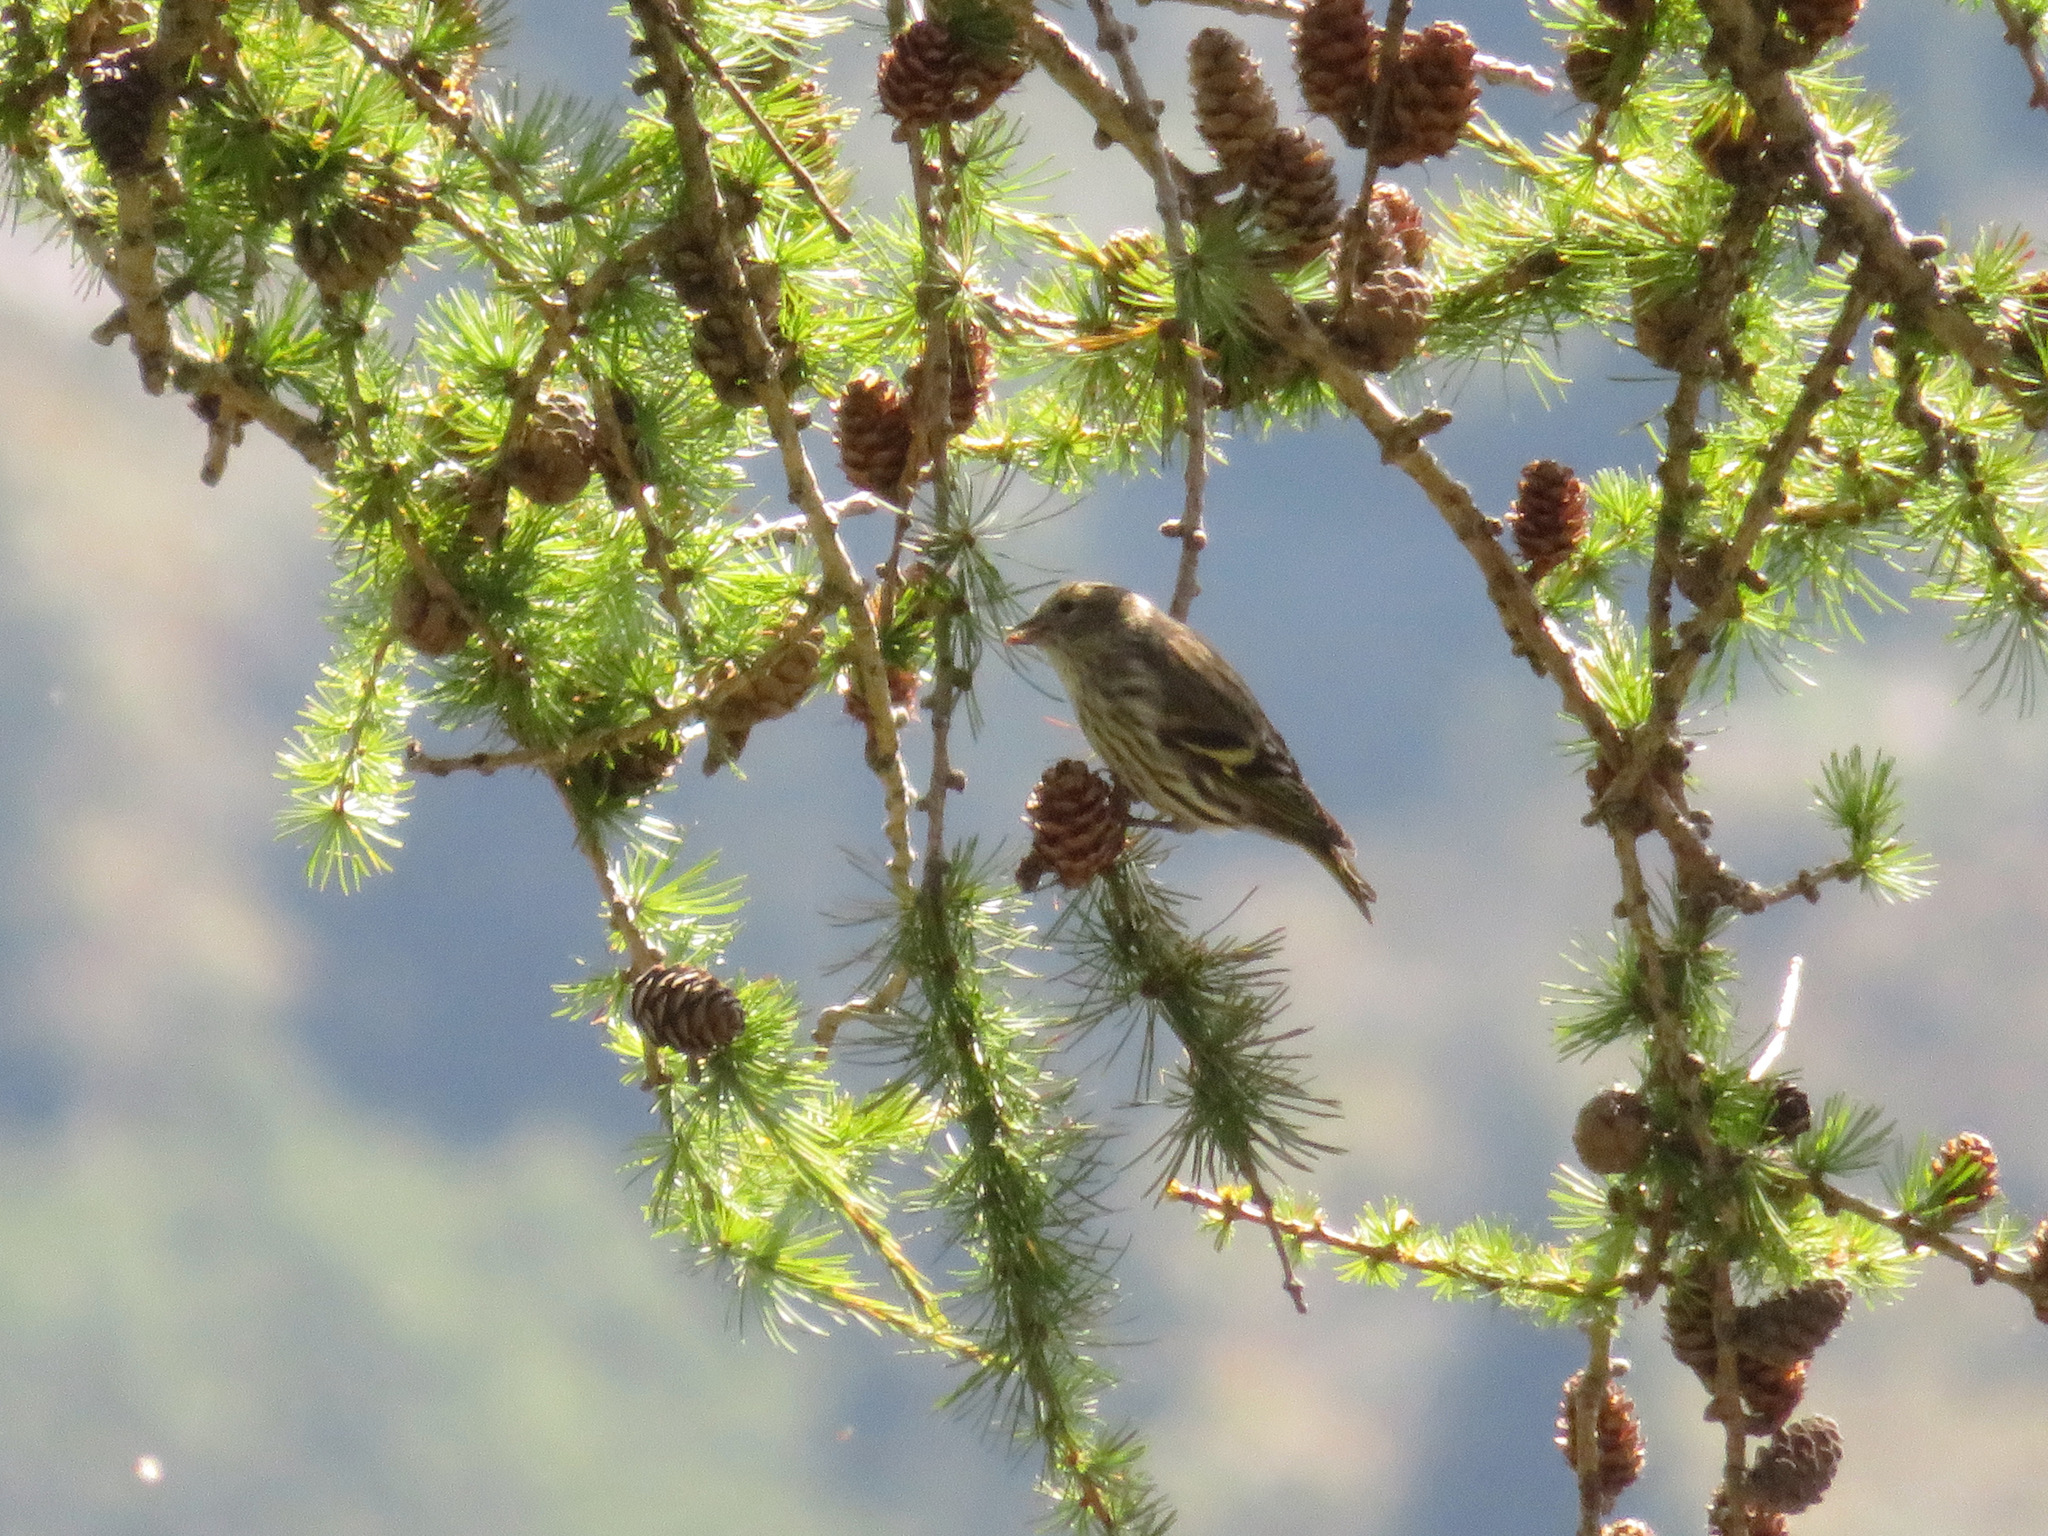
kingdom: Animalia
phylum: Chordata
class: Aves
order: Passeriformes
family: Fringillidae
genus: Spinus
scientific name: Spinus spinus
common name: Eurasian siskin
